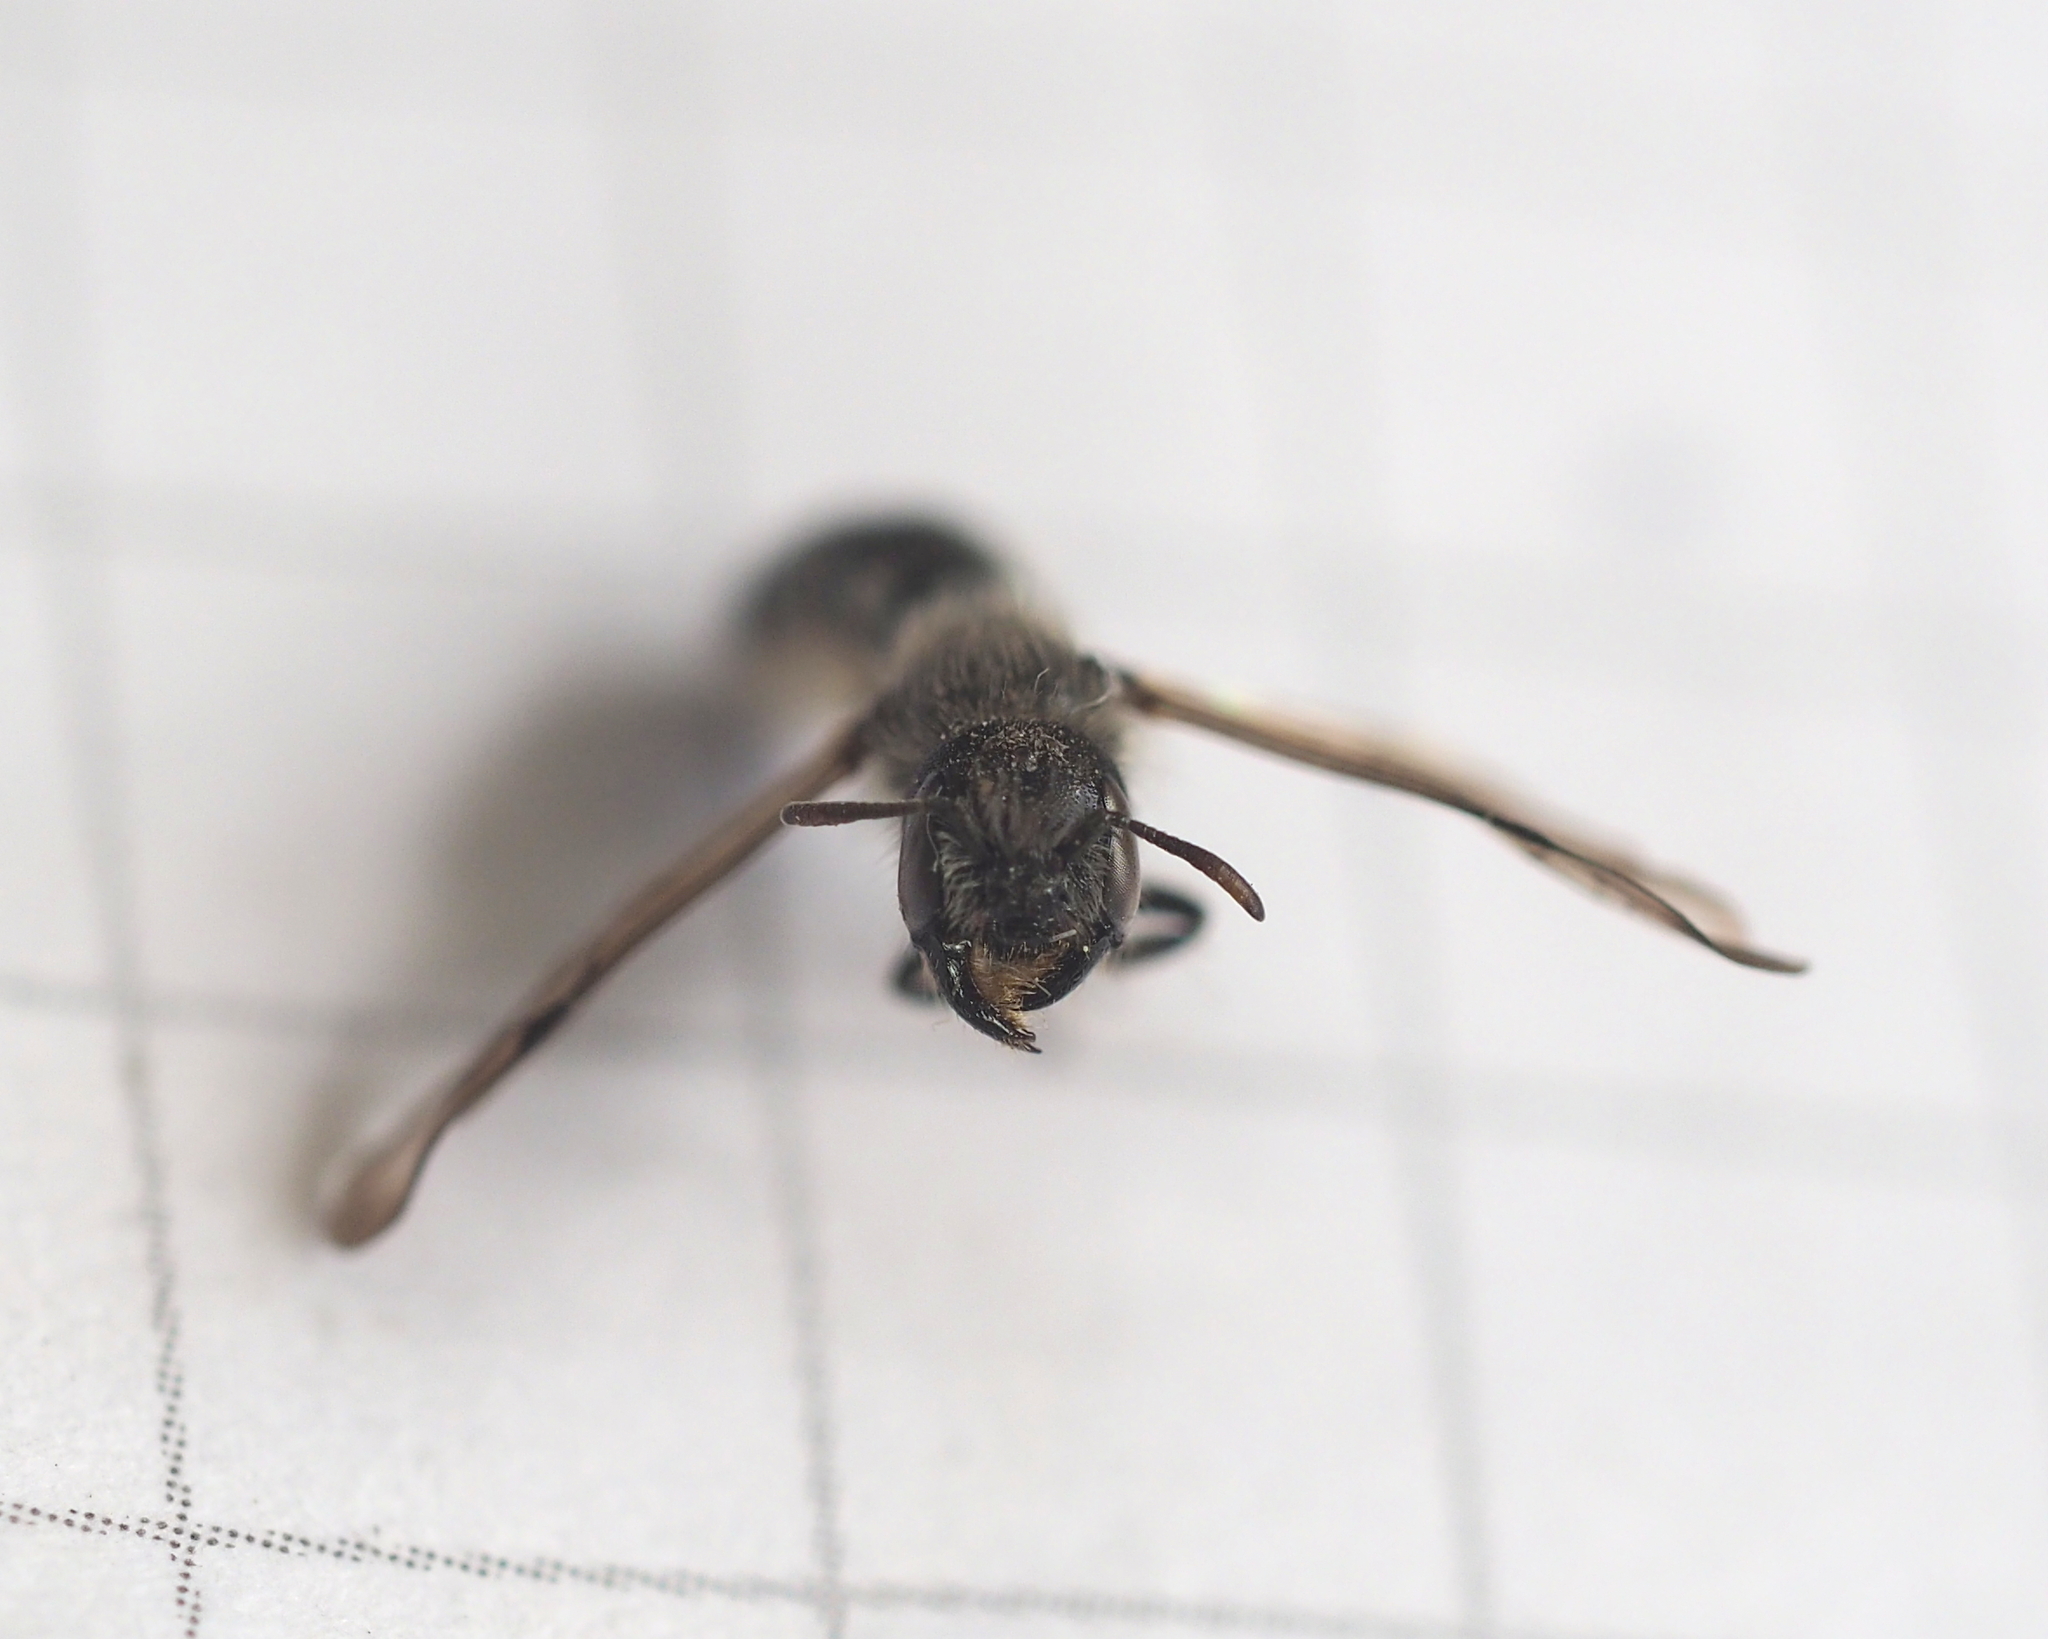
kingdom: Animalia
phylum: Arthropoda
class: Insecta
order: Hymenoptera
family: Megachilidae
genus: Chelostoma
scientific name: Chelostoma florisomne
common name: Sleepy carpenter bee
